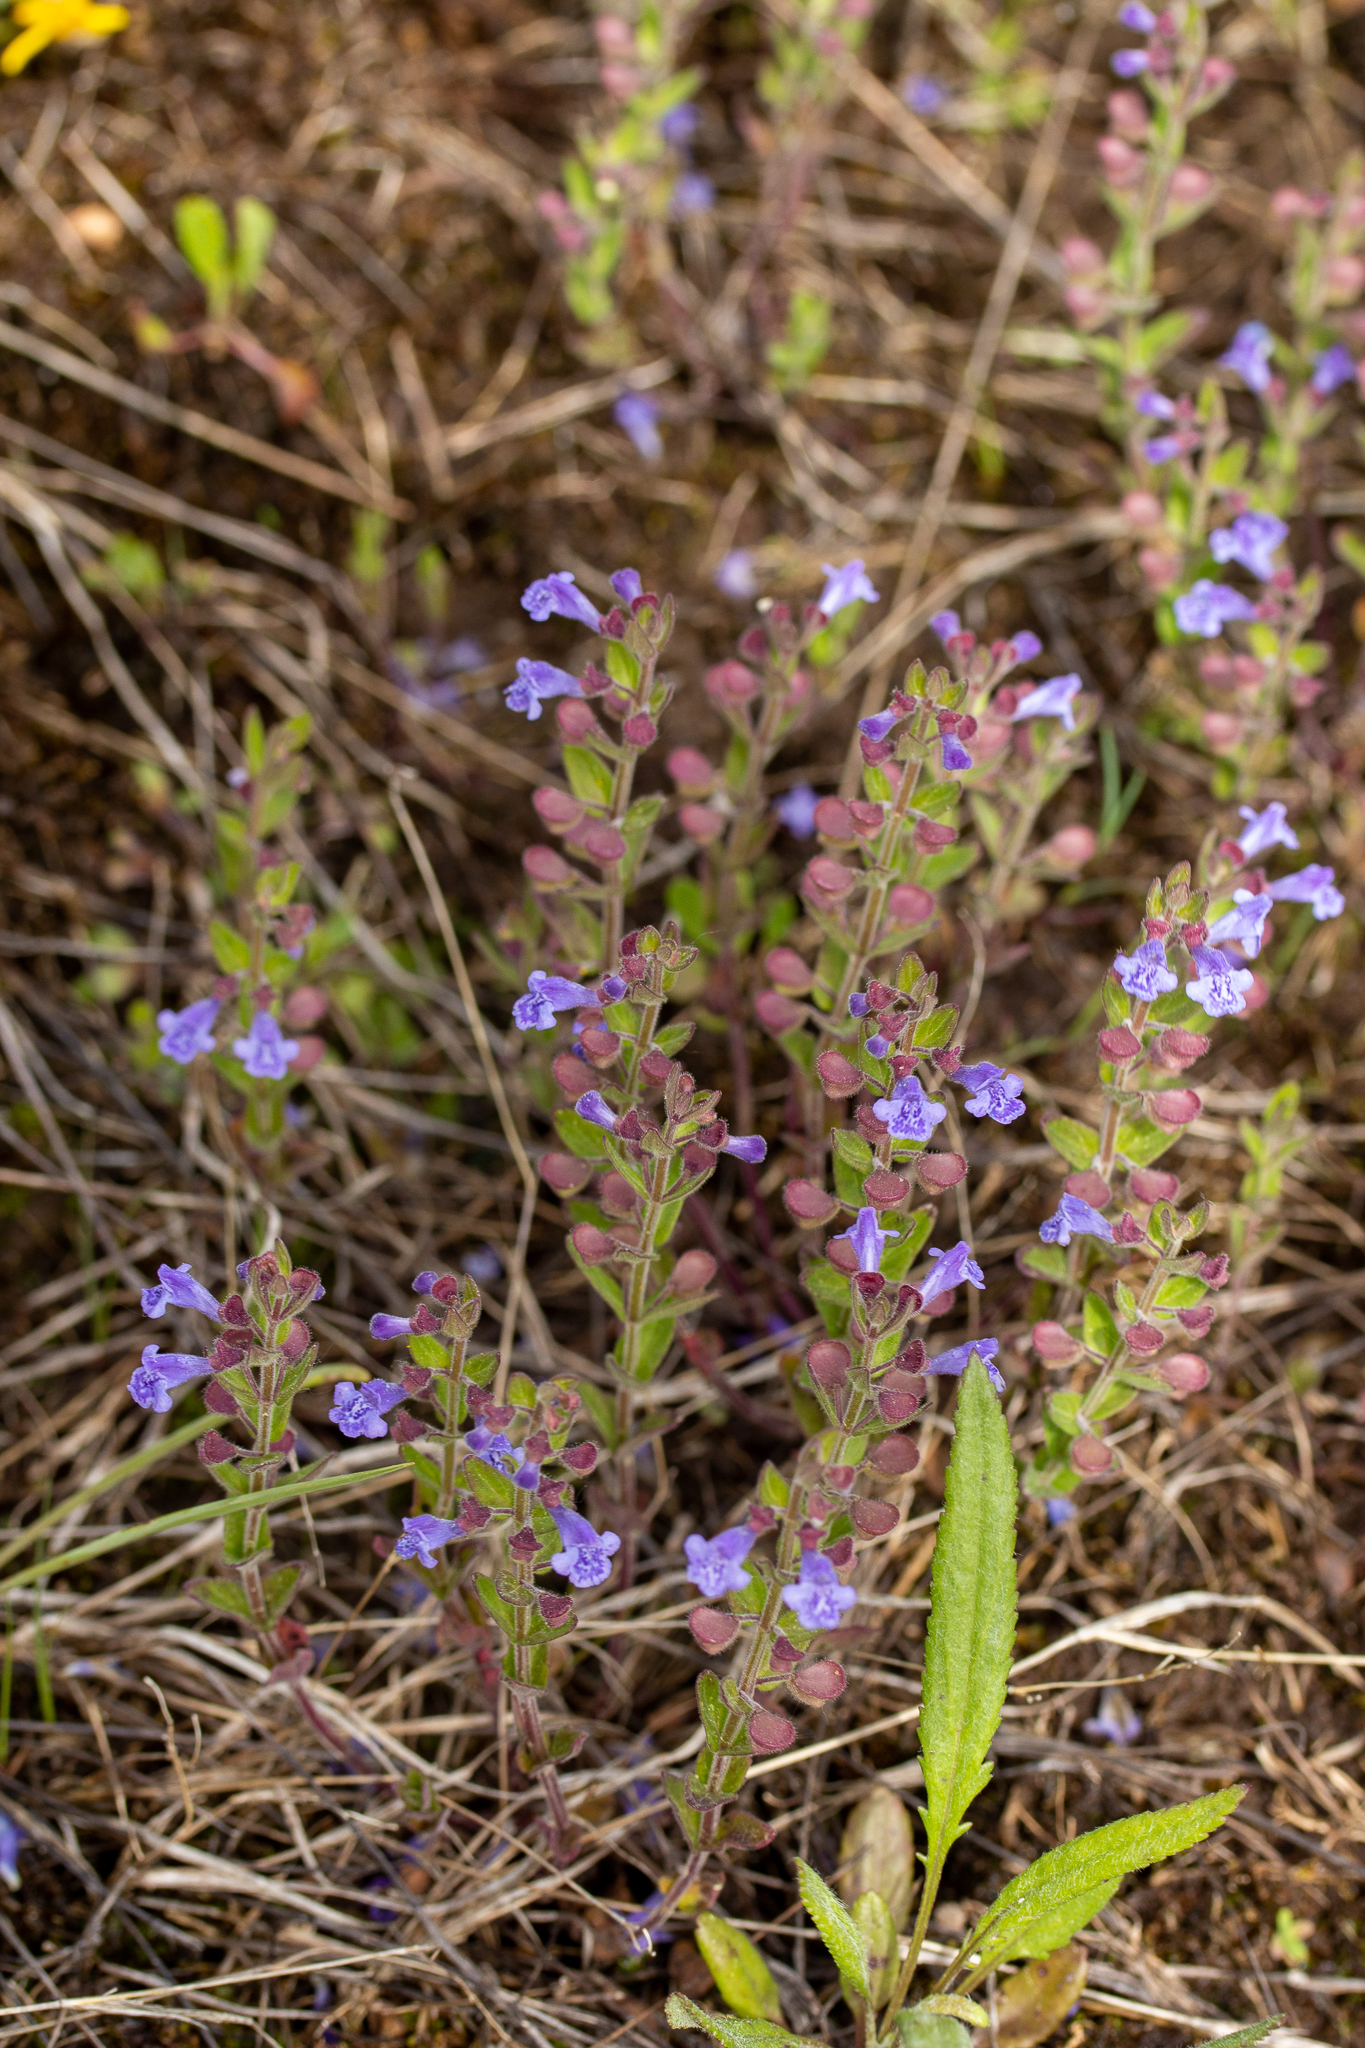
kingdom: Plantae
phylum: Tracheophyta
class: Magnoliopsida
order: Lamiales
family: Lamiaceae
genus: Scutellaria
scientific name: Scutellaria parvula
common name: Little scullcap
